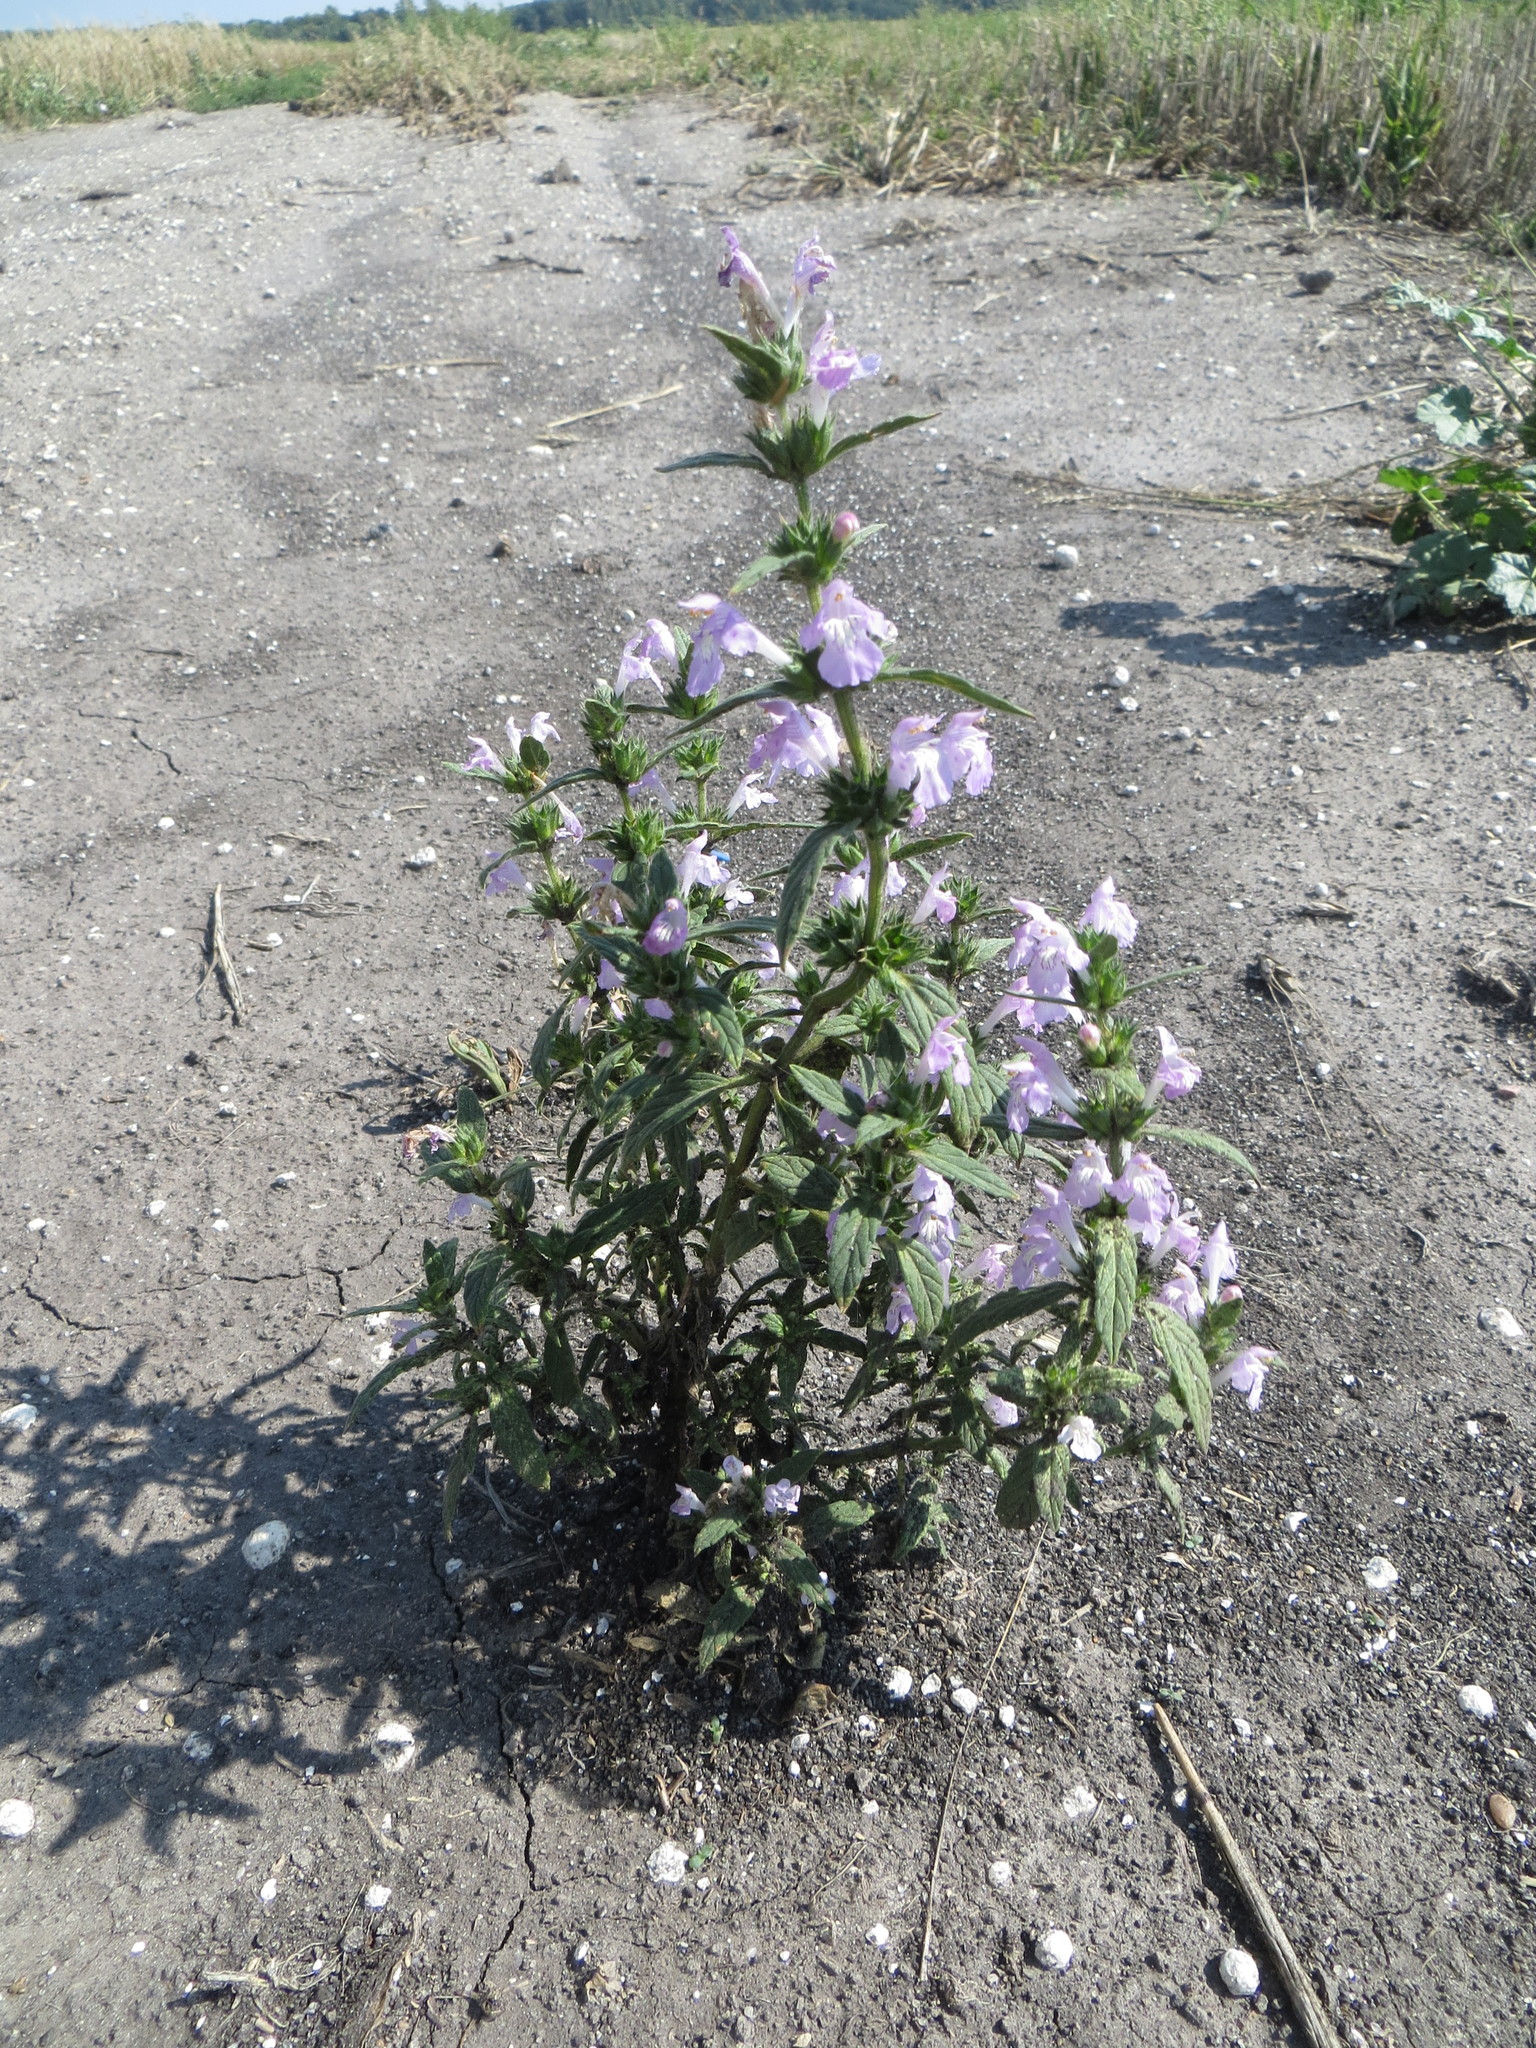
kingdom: Plantae
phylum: Tracheophyta
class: Magnoliopsida
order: Lamiales
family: Lamiaceae
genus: Galeopsis
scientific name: Galeopsis ladanum
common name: Broad-leaved hemp-nettle
